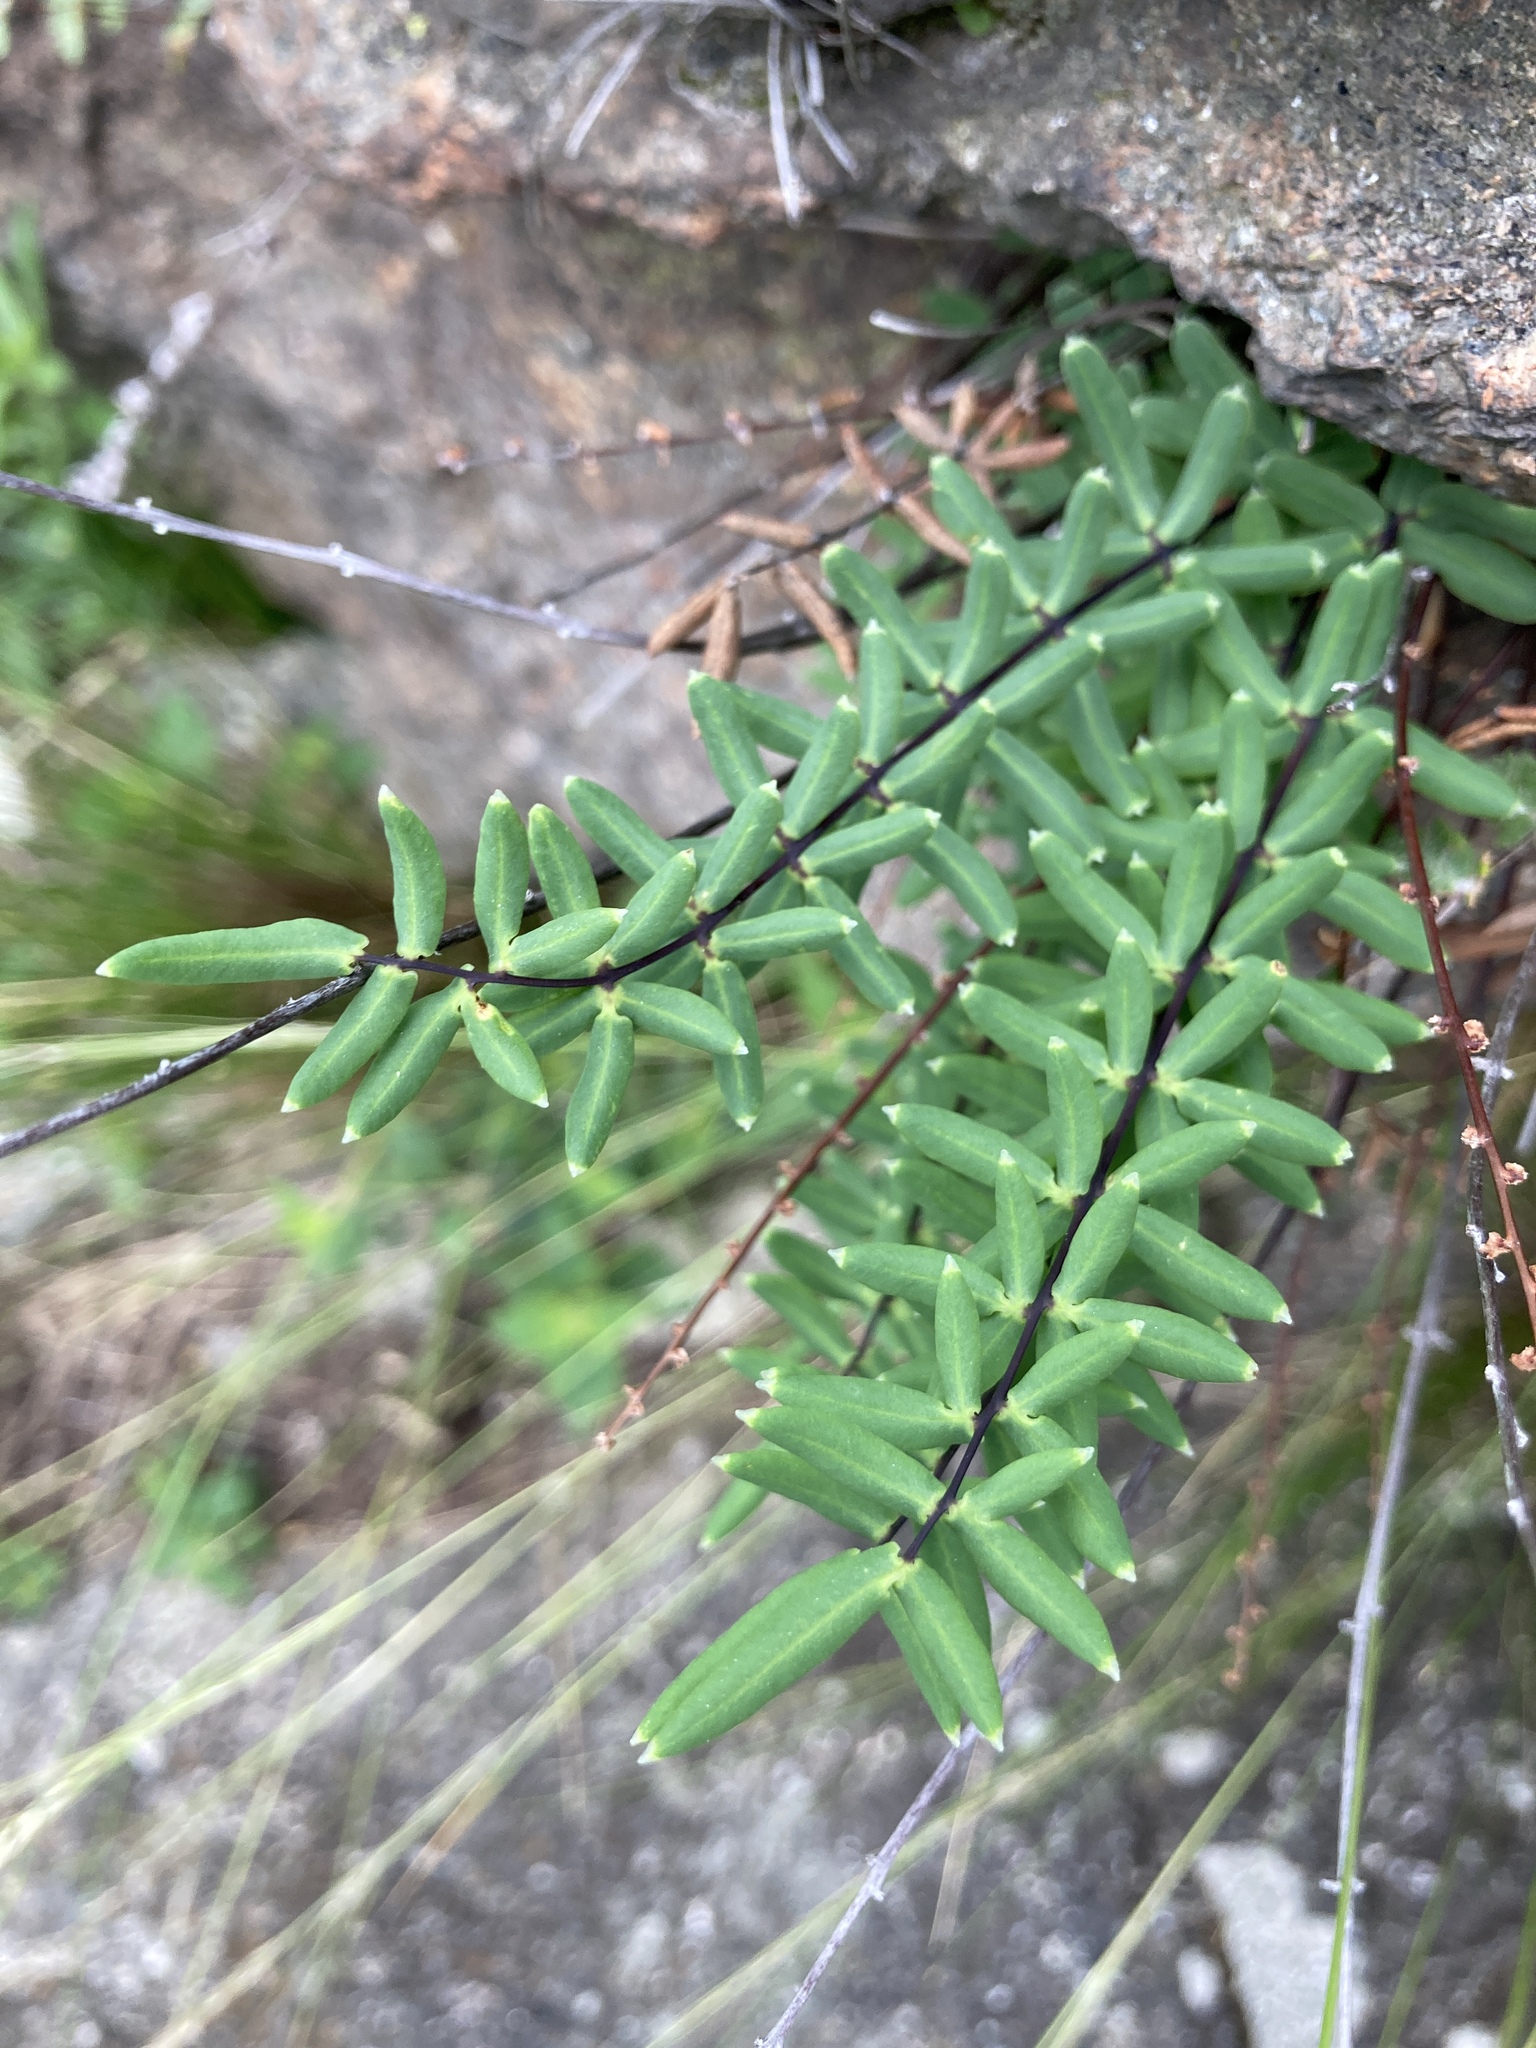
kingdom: Plantae
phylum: Tracheophyta
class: Polypodiopsida
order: Polypodiales
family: Pteridaceae
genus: Pellaea
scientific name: Pellaea ternifolia
